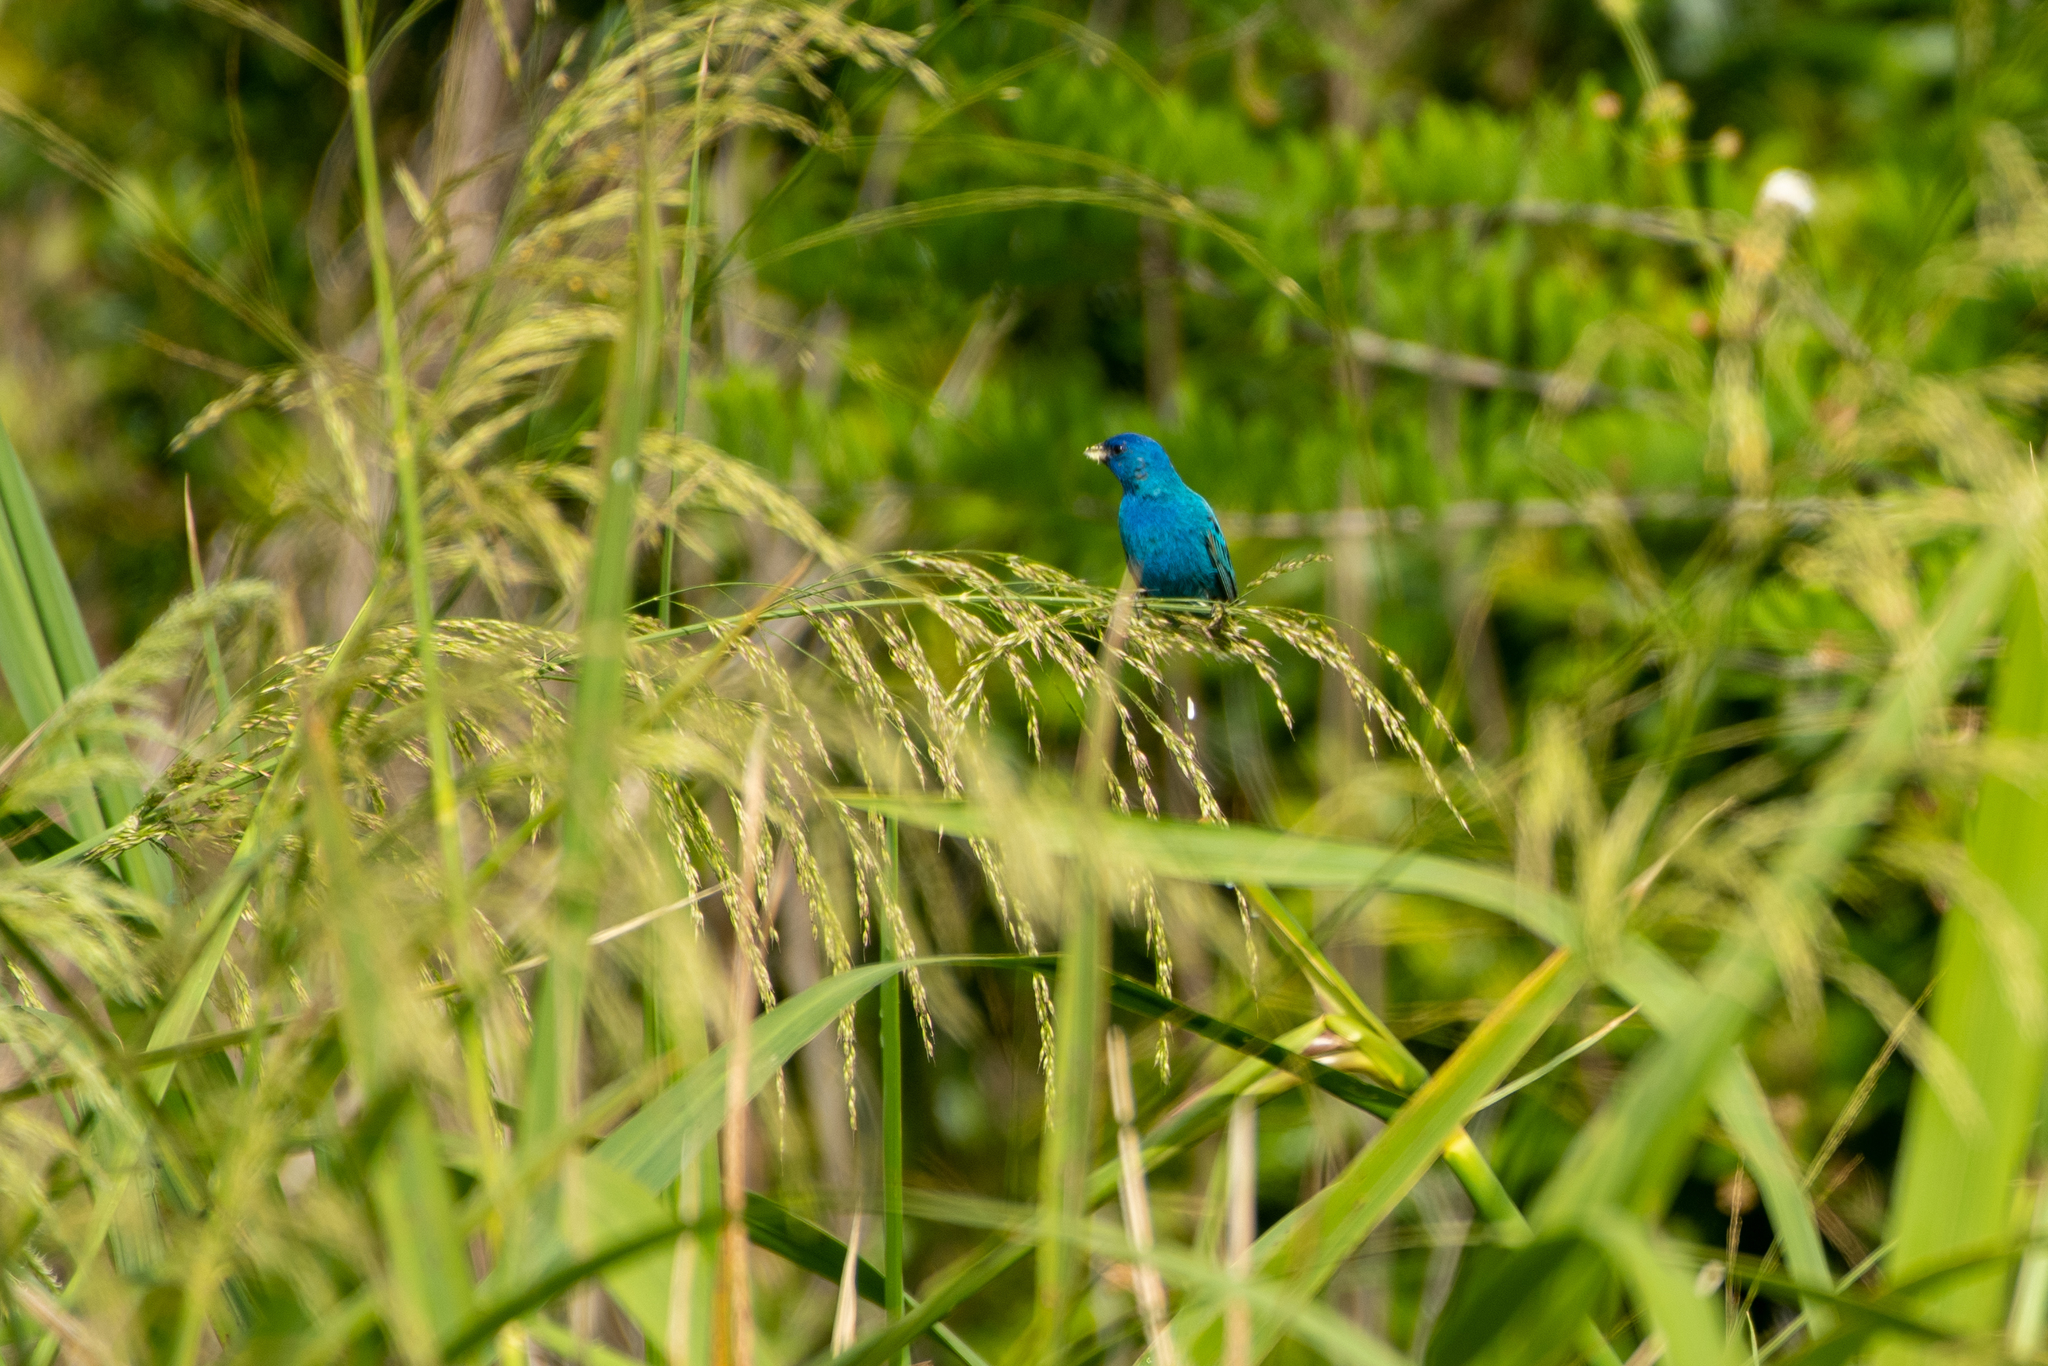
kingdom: Animalia
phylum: Chordata
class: Aves
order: Passeriformes
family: Cardinalidae
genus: Passerina
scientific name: Passerina cyanea
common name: Indigo bunting
